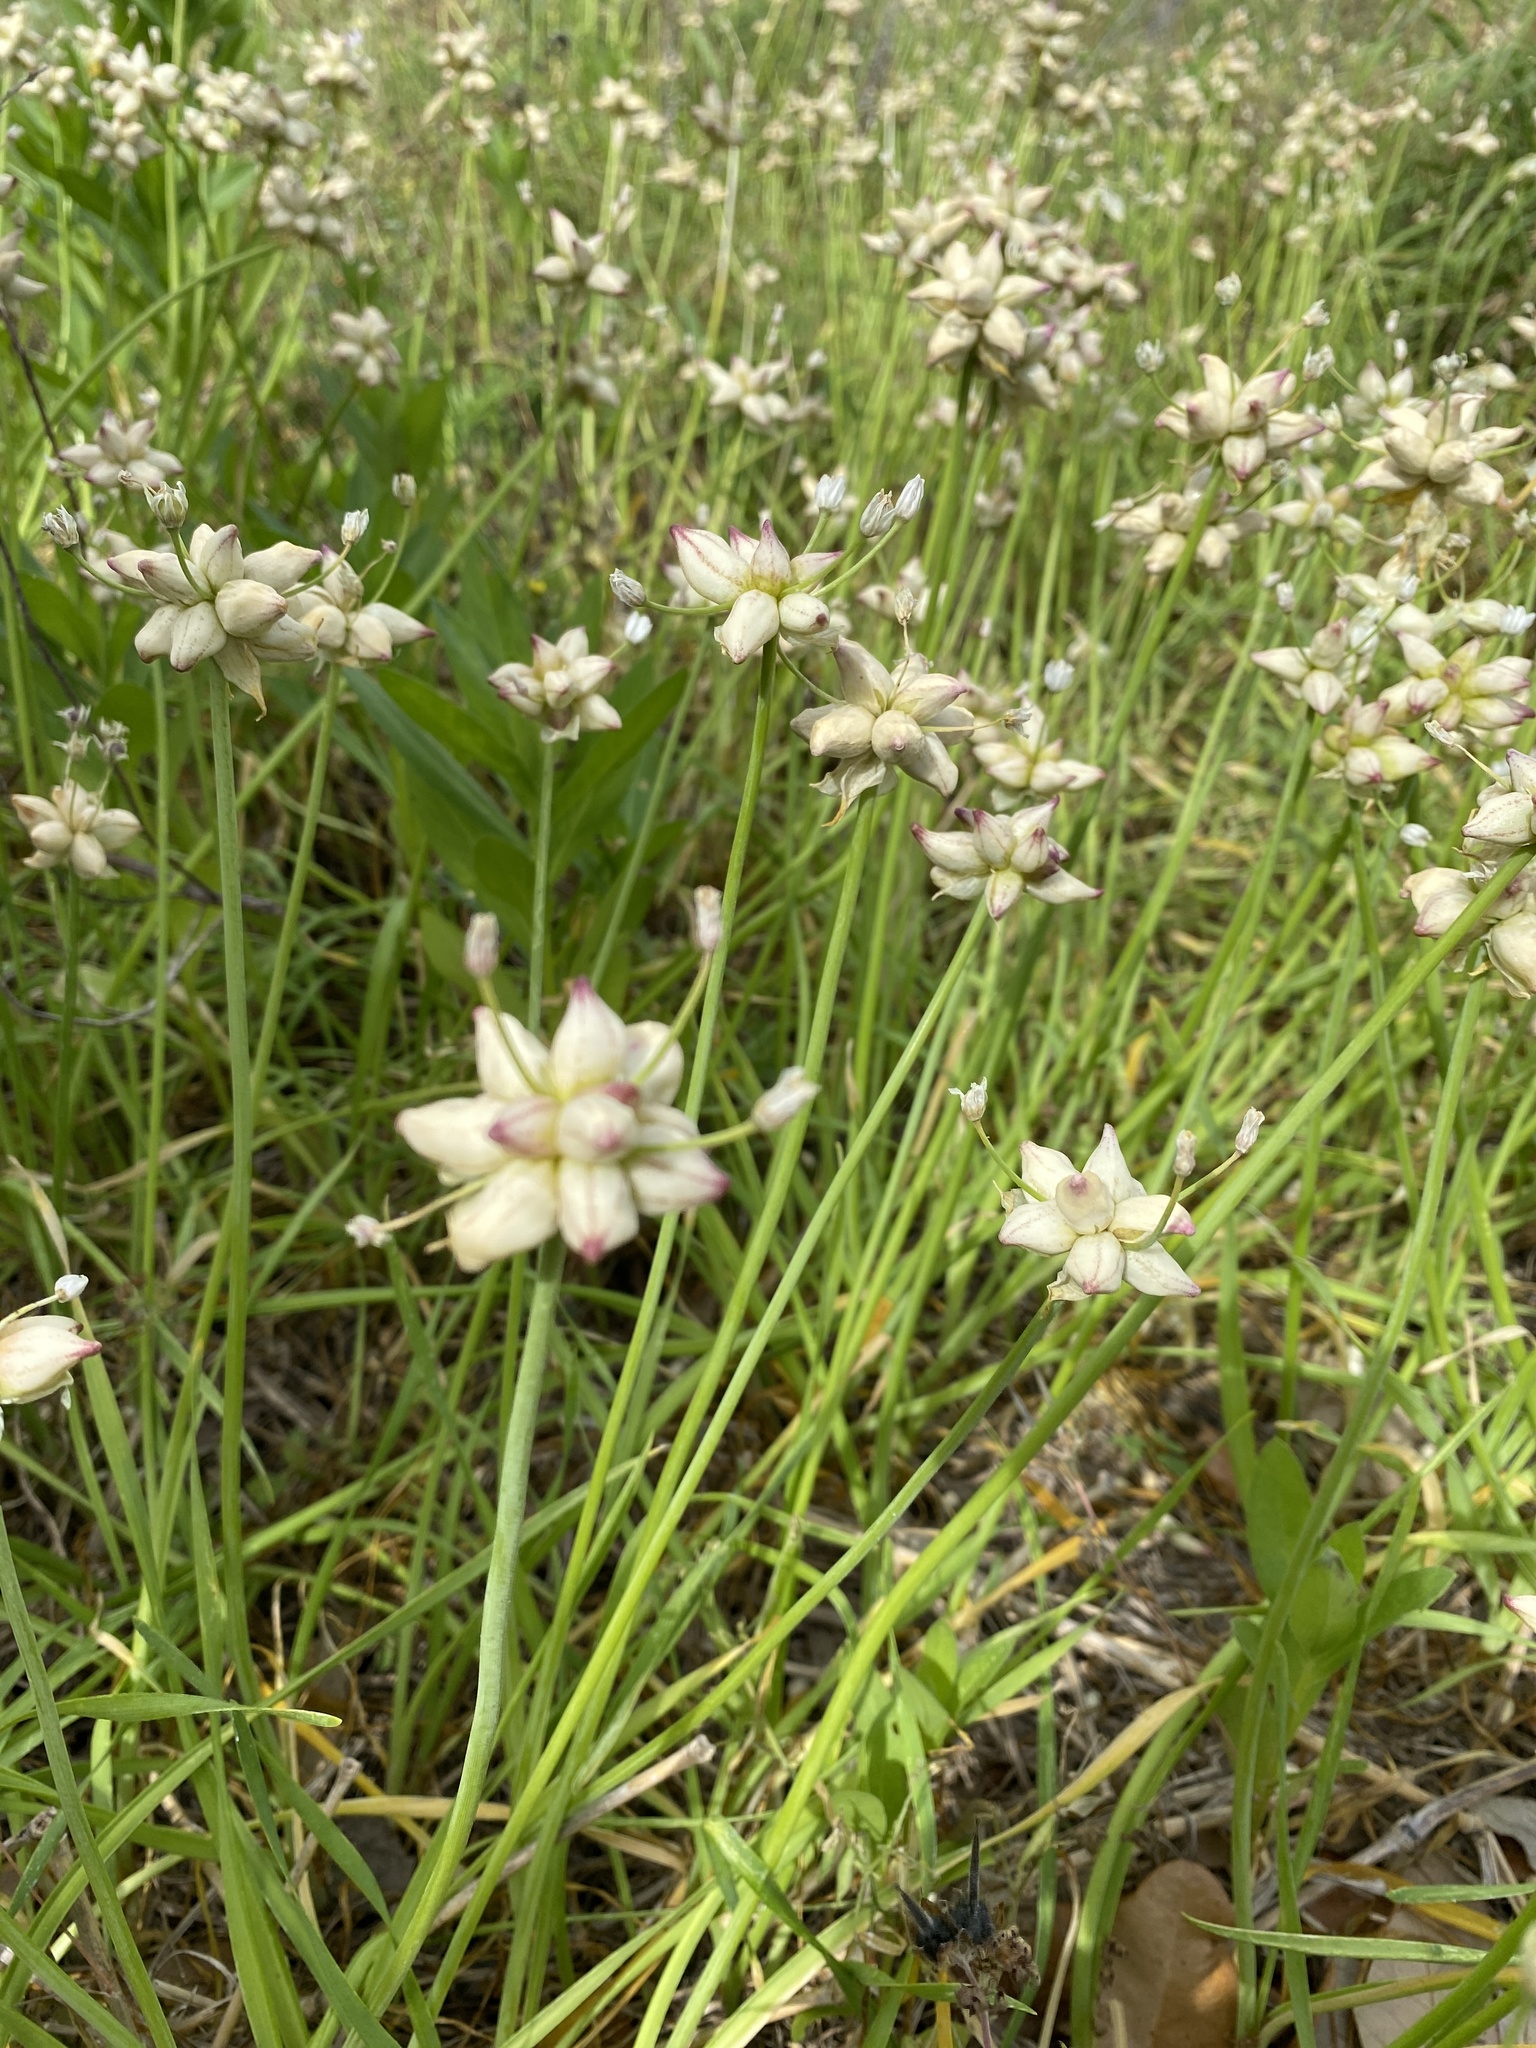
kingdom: Plantae
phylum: Tracheophyta
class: Liliopsida
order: Asparagales
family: Amaryllidaceae
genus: Allium
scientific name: Allium canadense
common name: Meadow garlic
